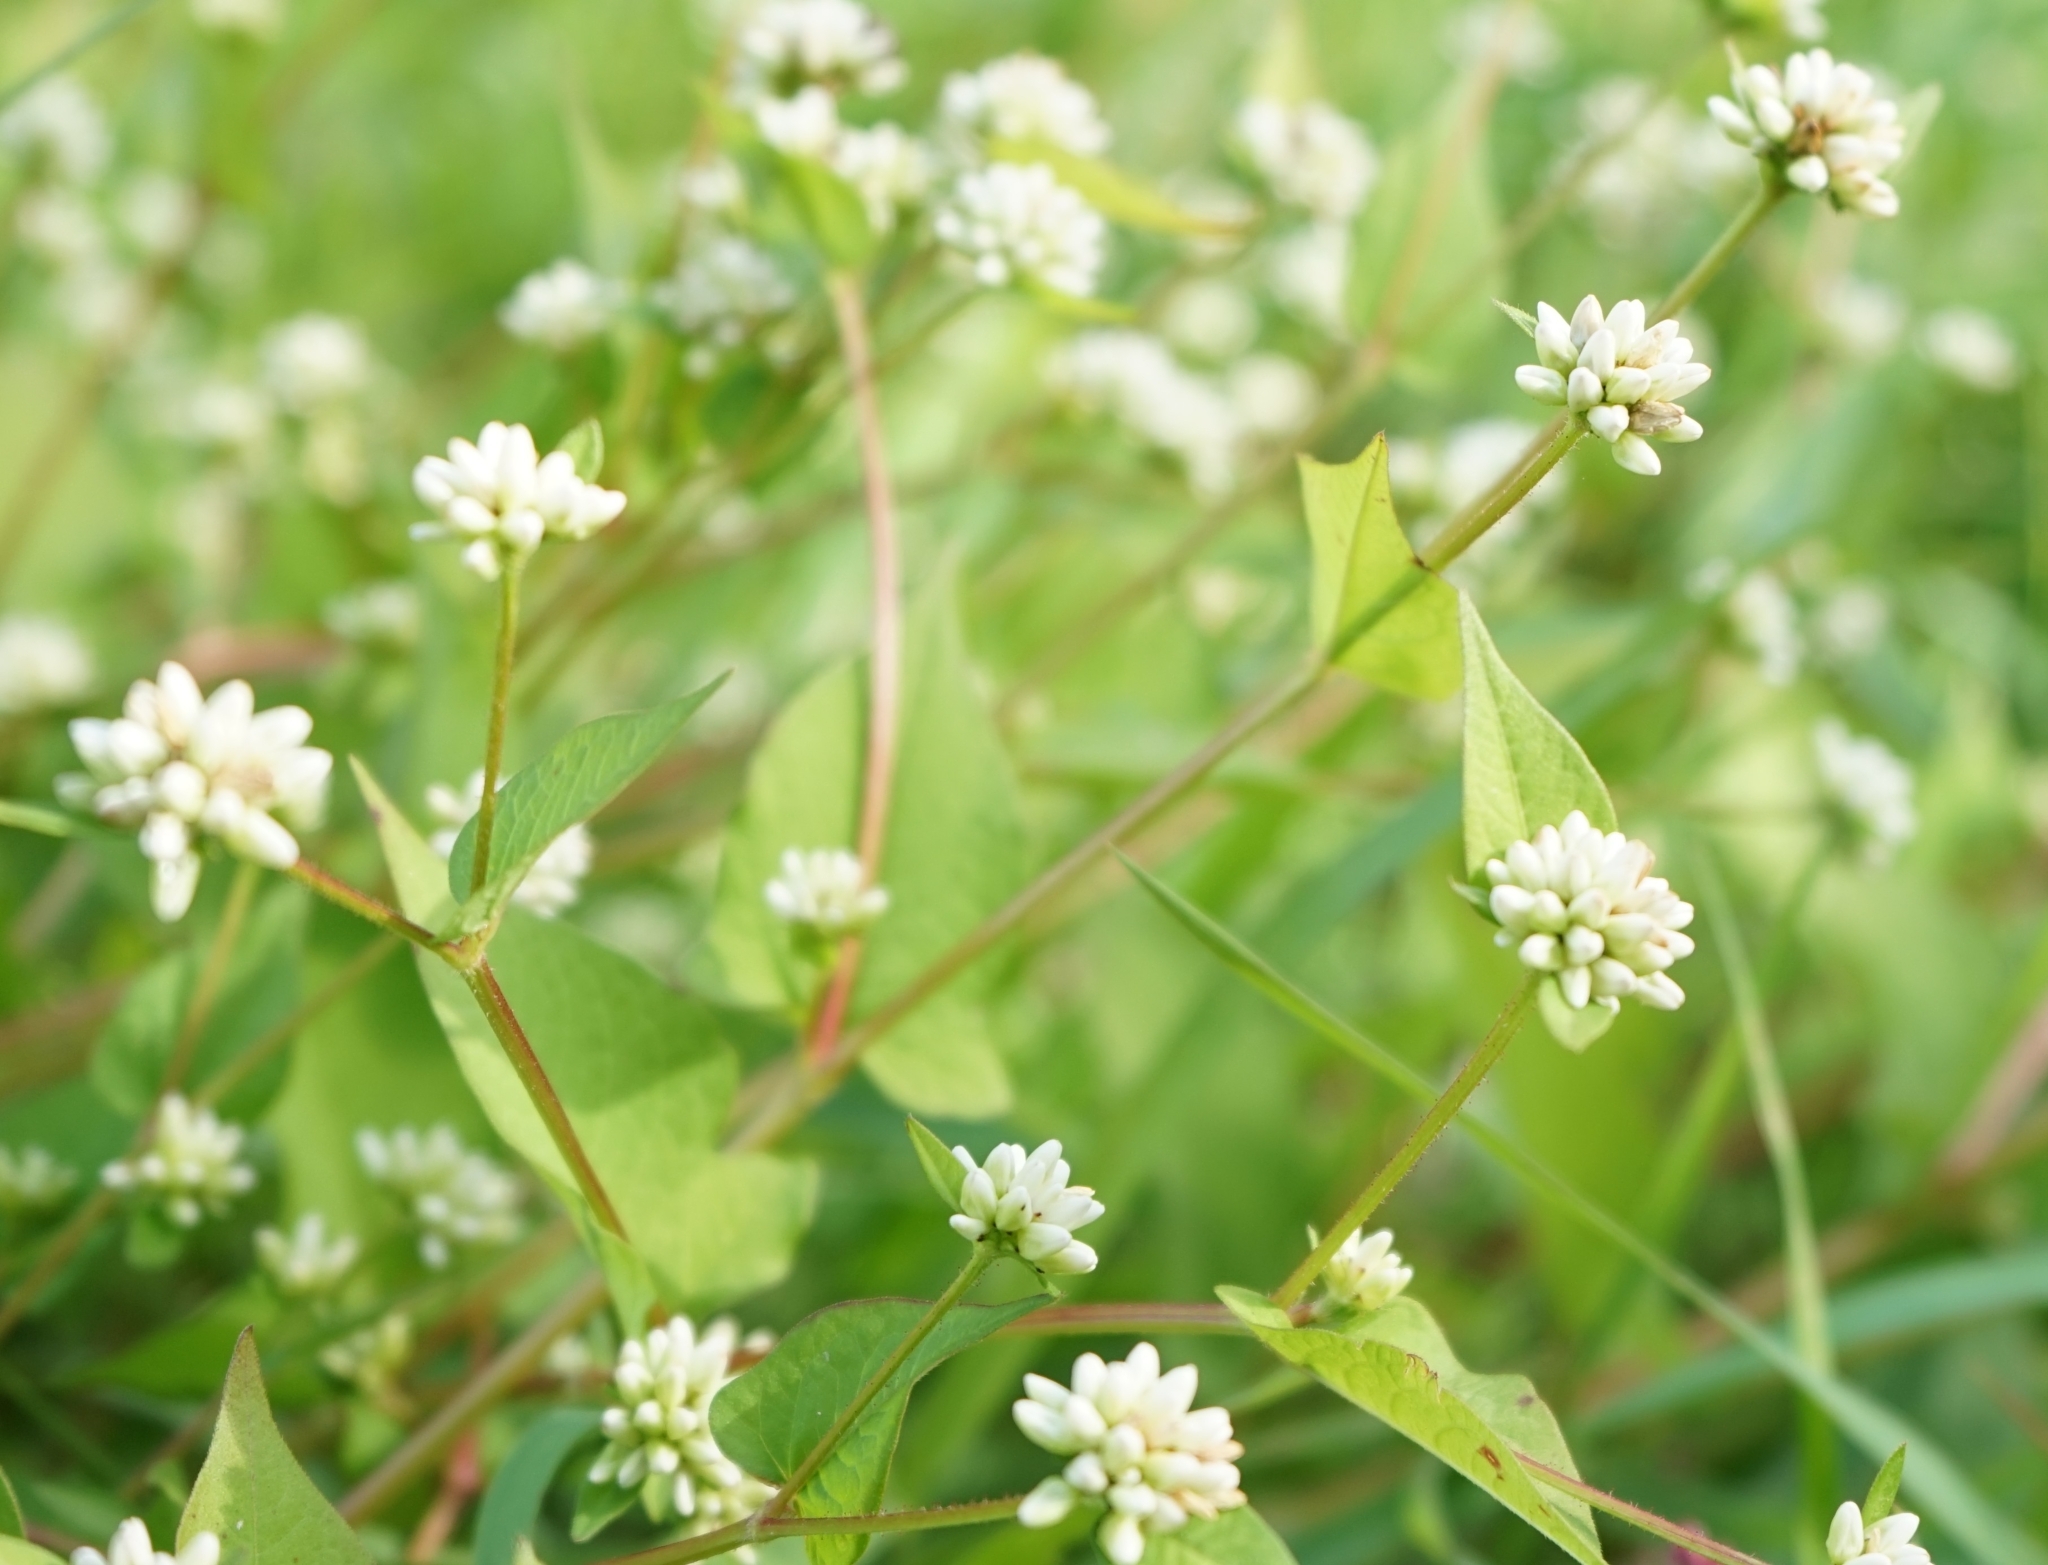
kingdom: Plantae
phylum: Tracheophyta
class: Magnoliopsida
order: Caryophyllales
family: Polygonaceae
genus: Persicaria
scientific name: Persicaria thunbergii
